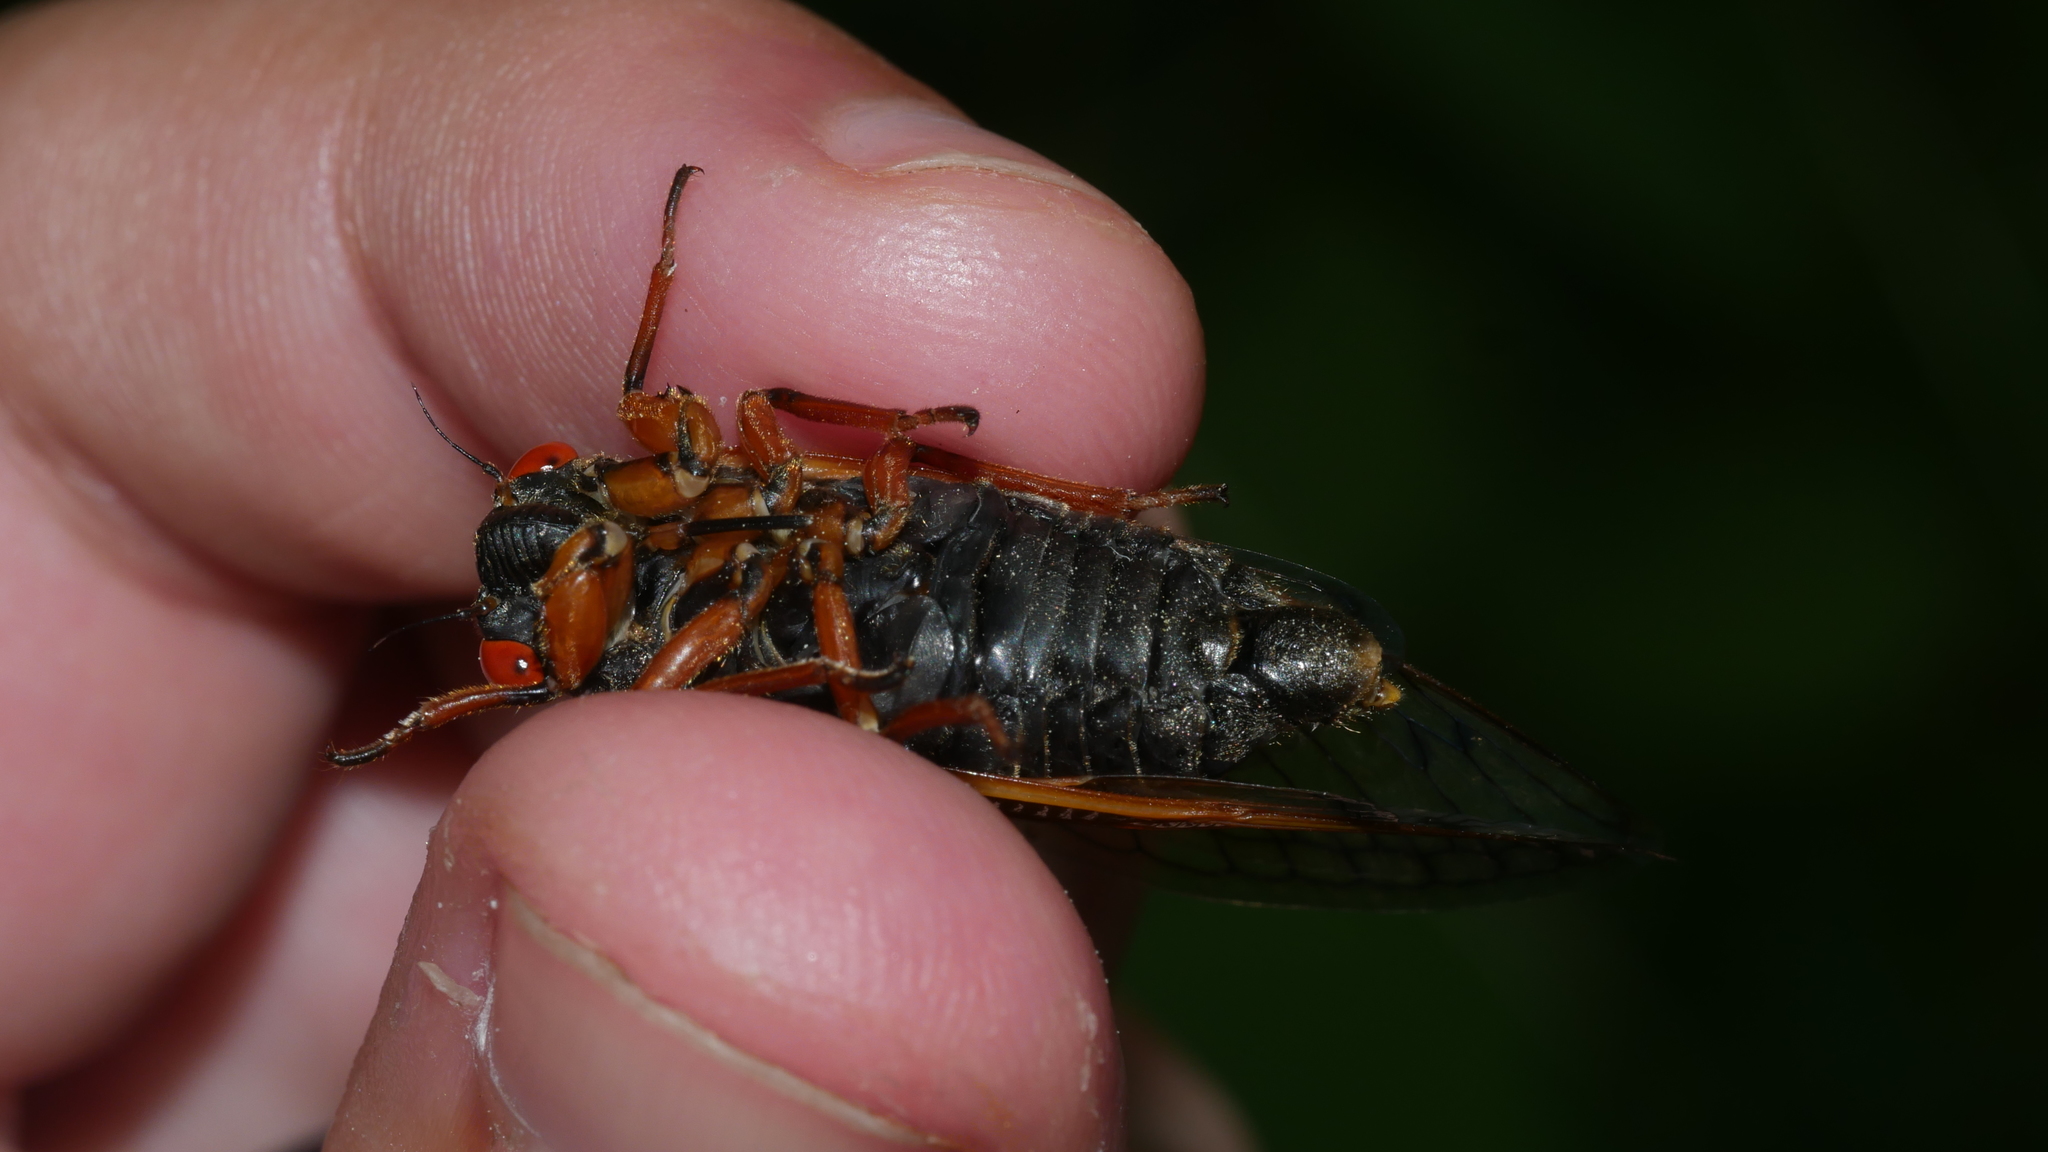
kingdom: Animalia
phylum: Arthropoda
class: Insecta
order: Hemiptera
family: Cicadidae
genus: Magicicada
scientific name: Magicicada cassini
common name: Cassin's 17-year cicada
